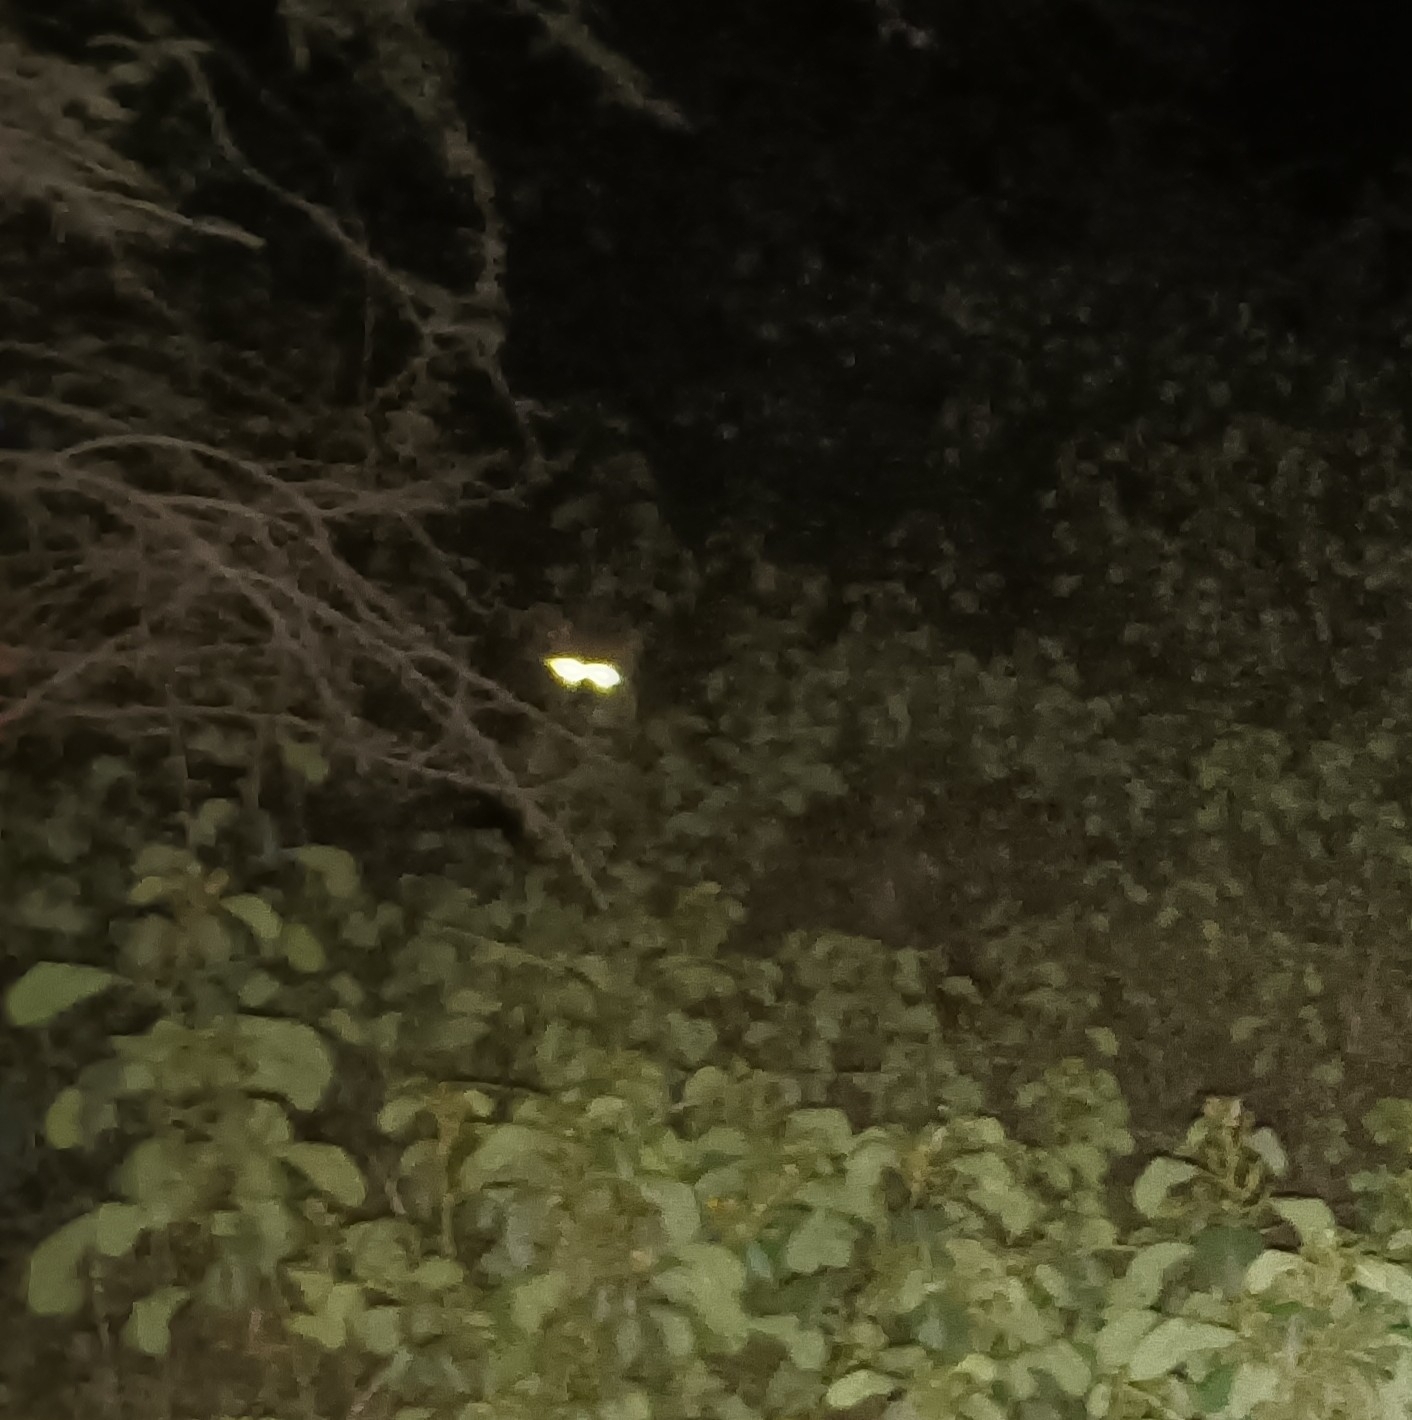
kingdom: Animalia
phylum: Chordata
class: Mammalia
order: Carnivora
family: Canidae
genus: Vulpes
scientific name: Vulpes bengalensis
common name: Bengal fox
